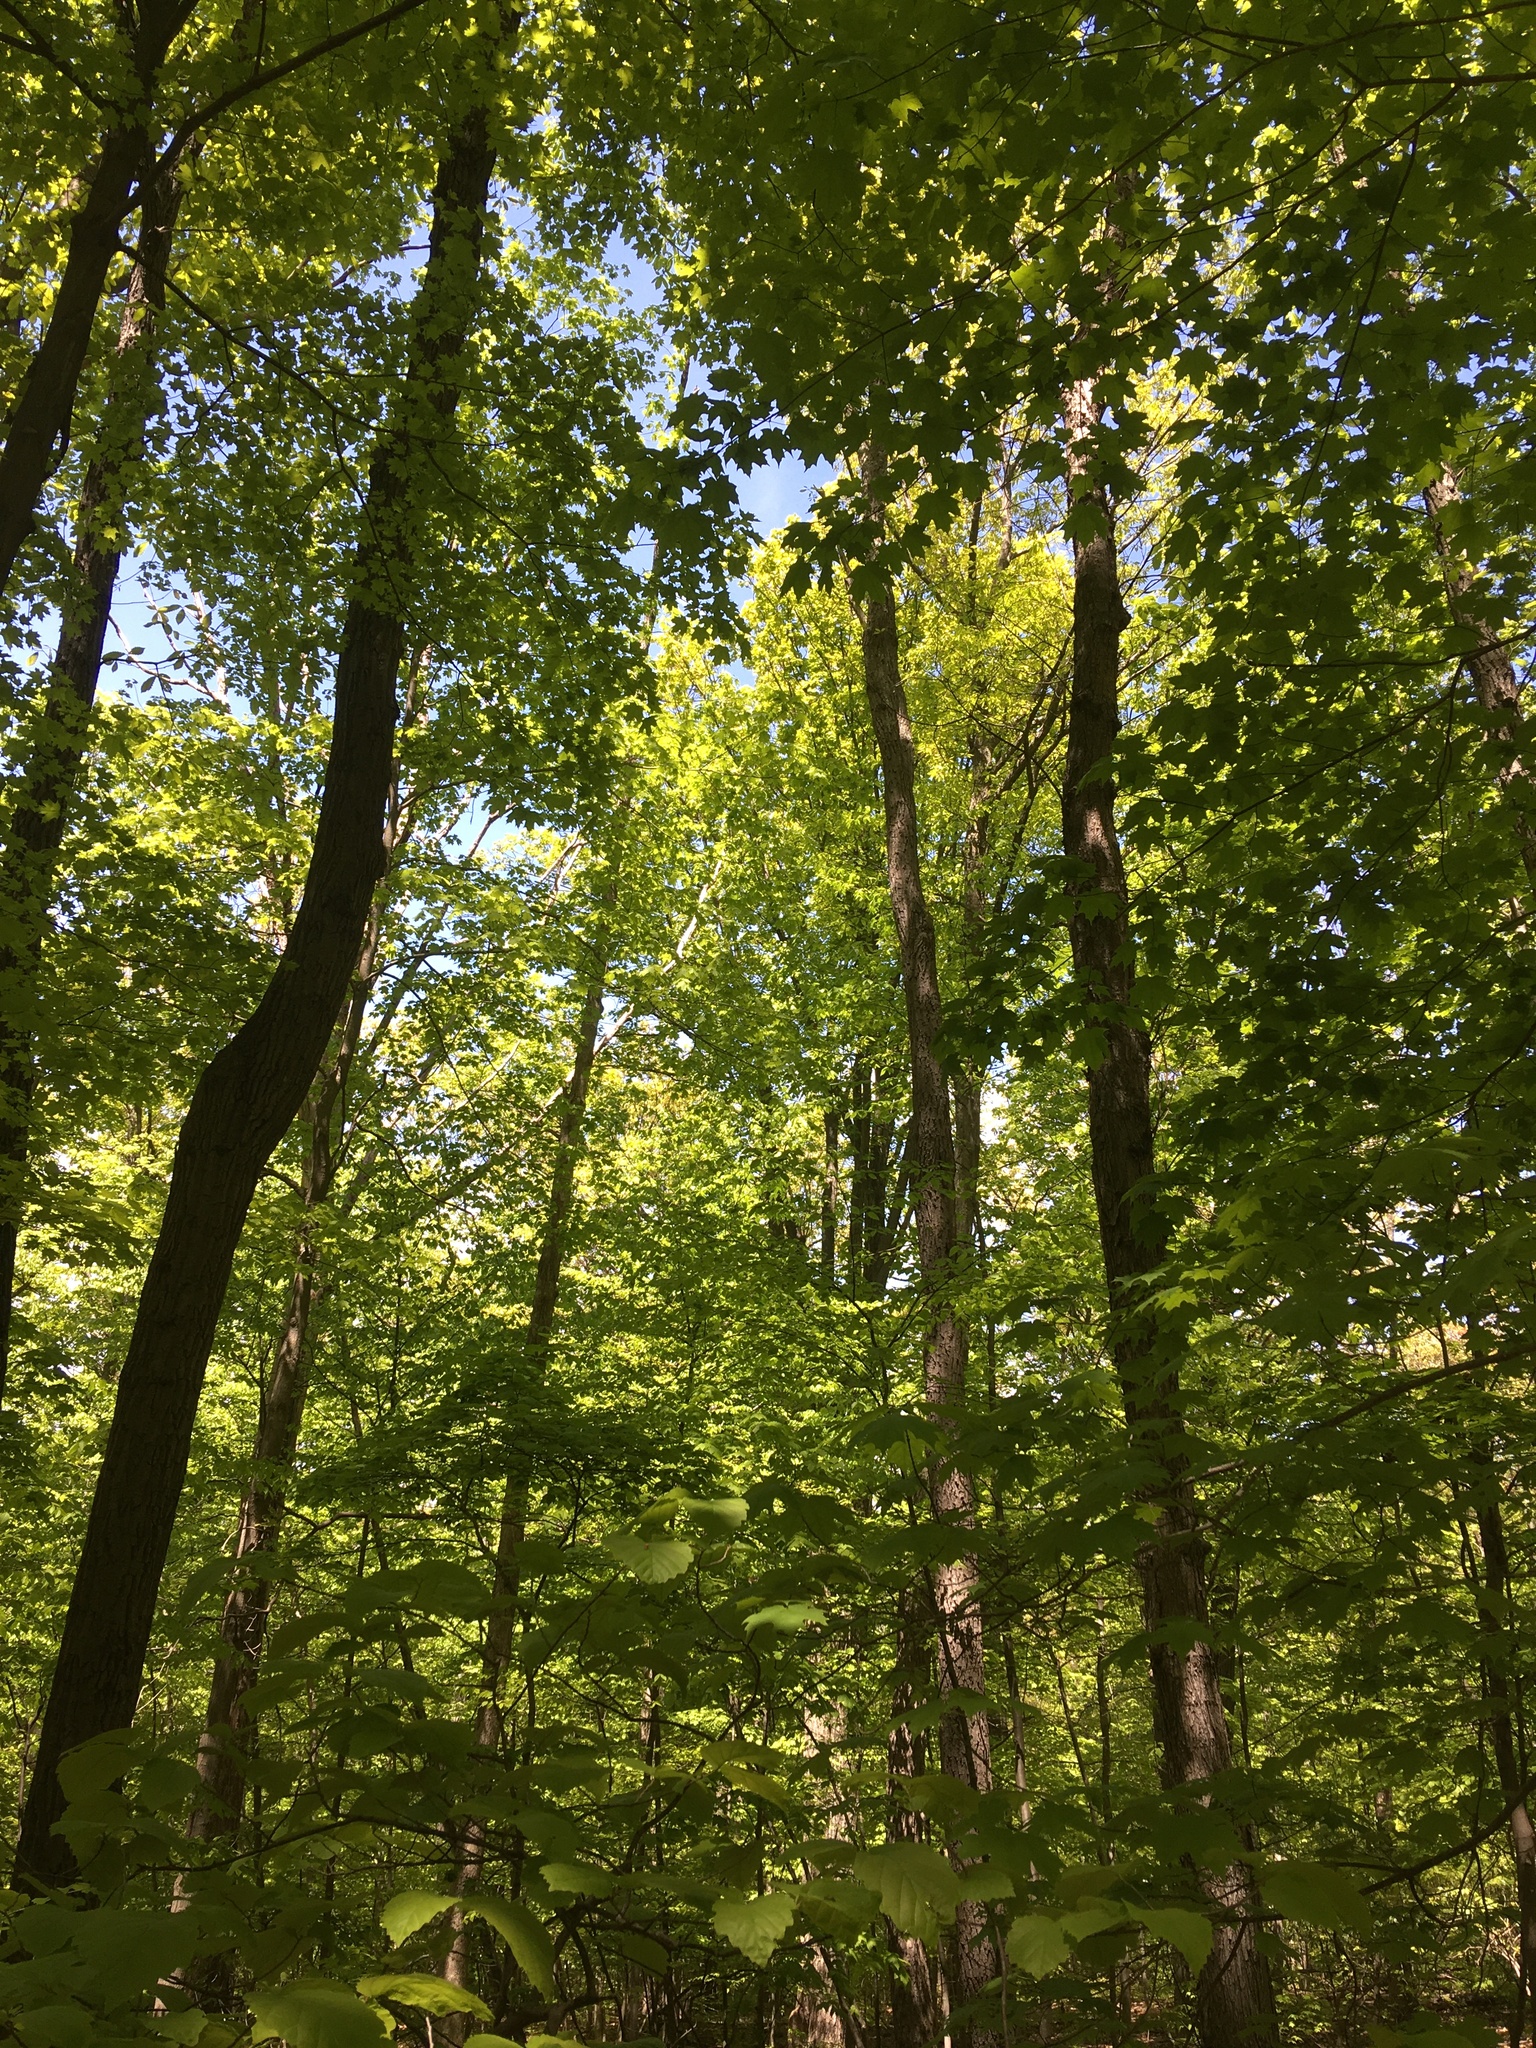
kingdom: Animalia
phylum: Chordata
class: Aves
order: Passeriformes
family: Cardinalidae
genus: Passerina
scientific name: Passerina cyanea
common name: Indigo bunting
